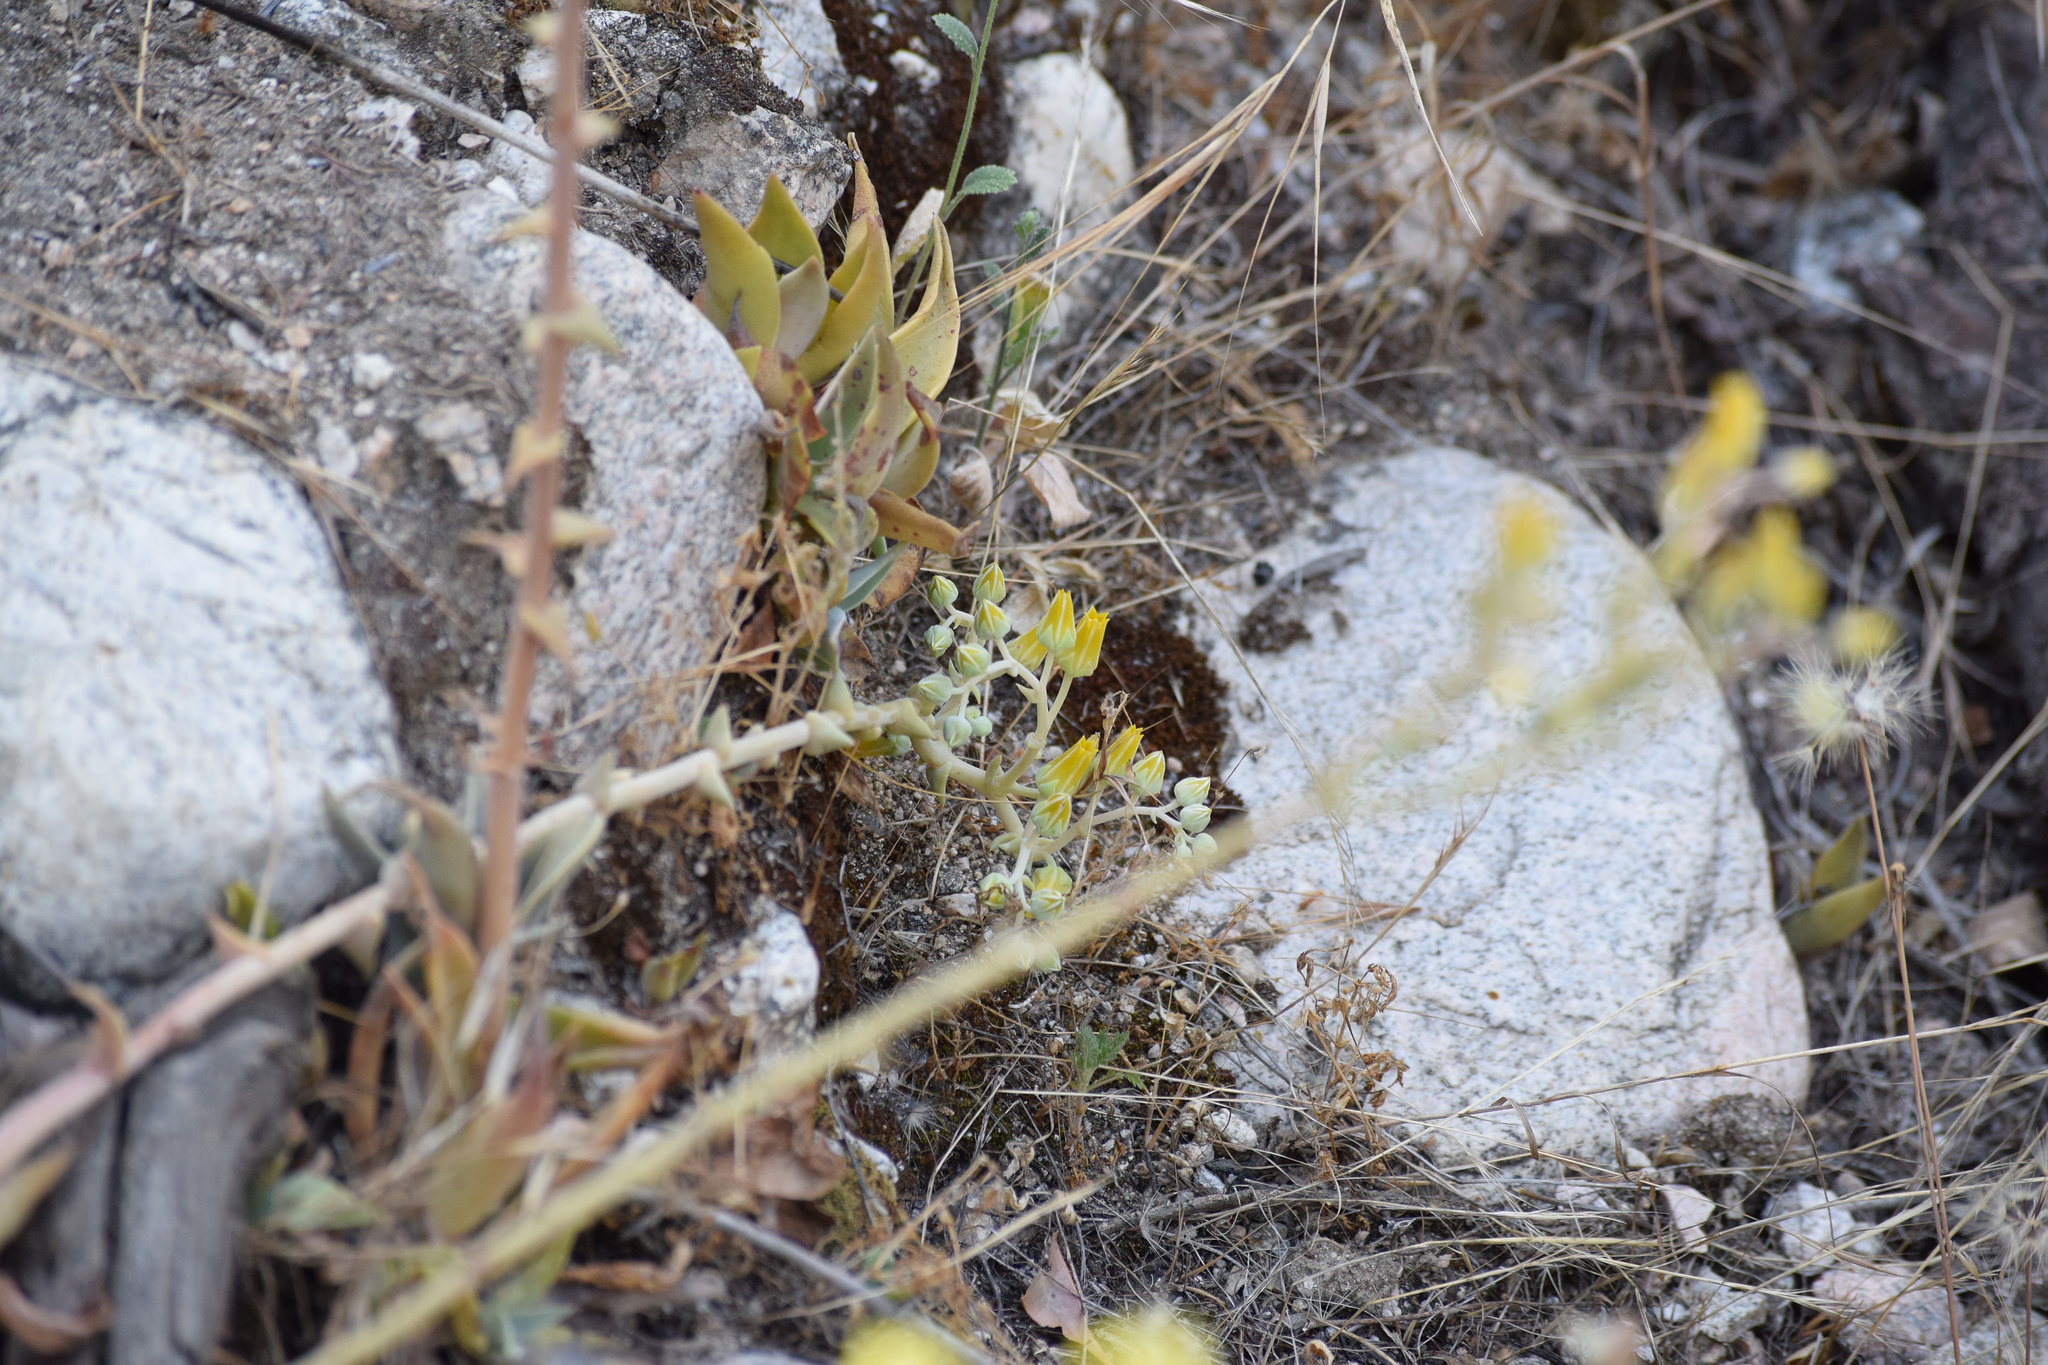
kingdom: Plantae
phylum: Tracheophyta
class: Magnoliopsida
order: Saxifragales
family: Crassulaceae
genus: Dudleya
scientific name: Dudleya lanceolata
